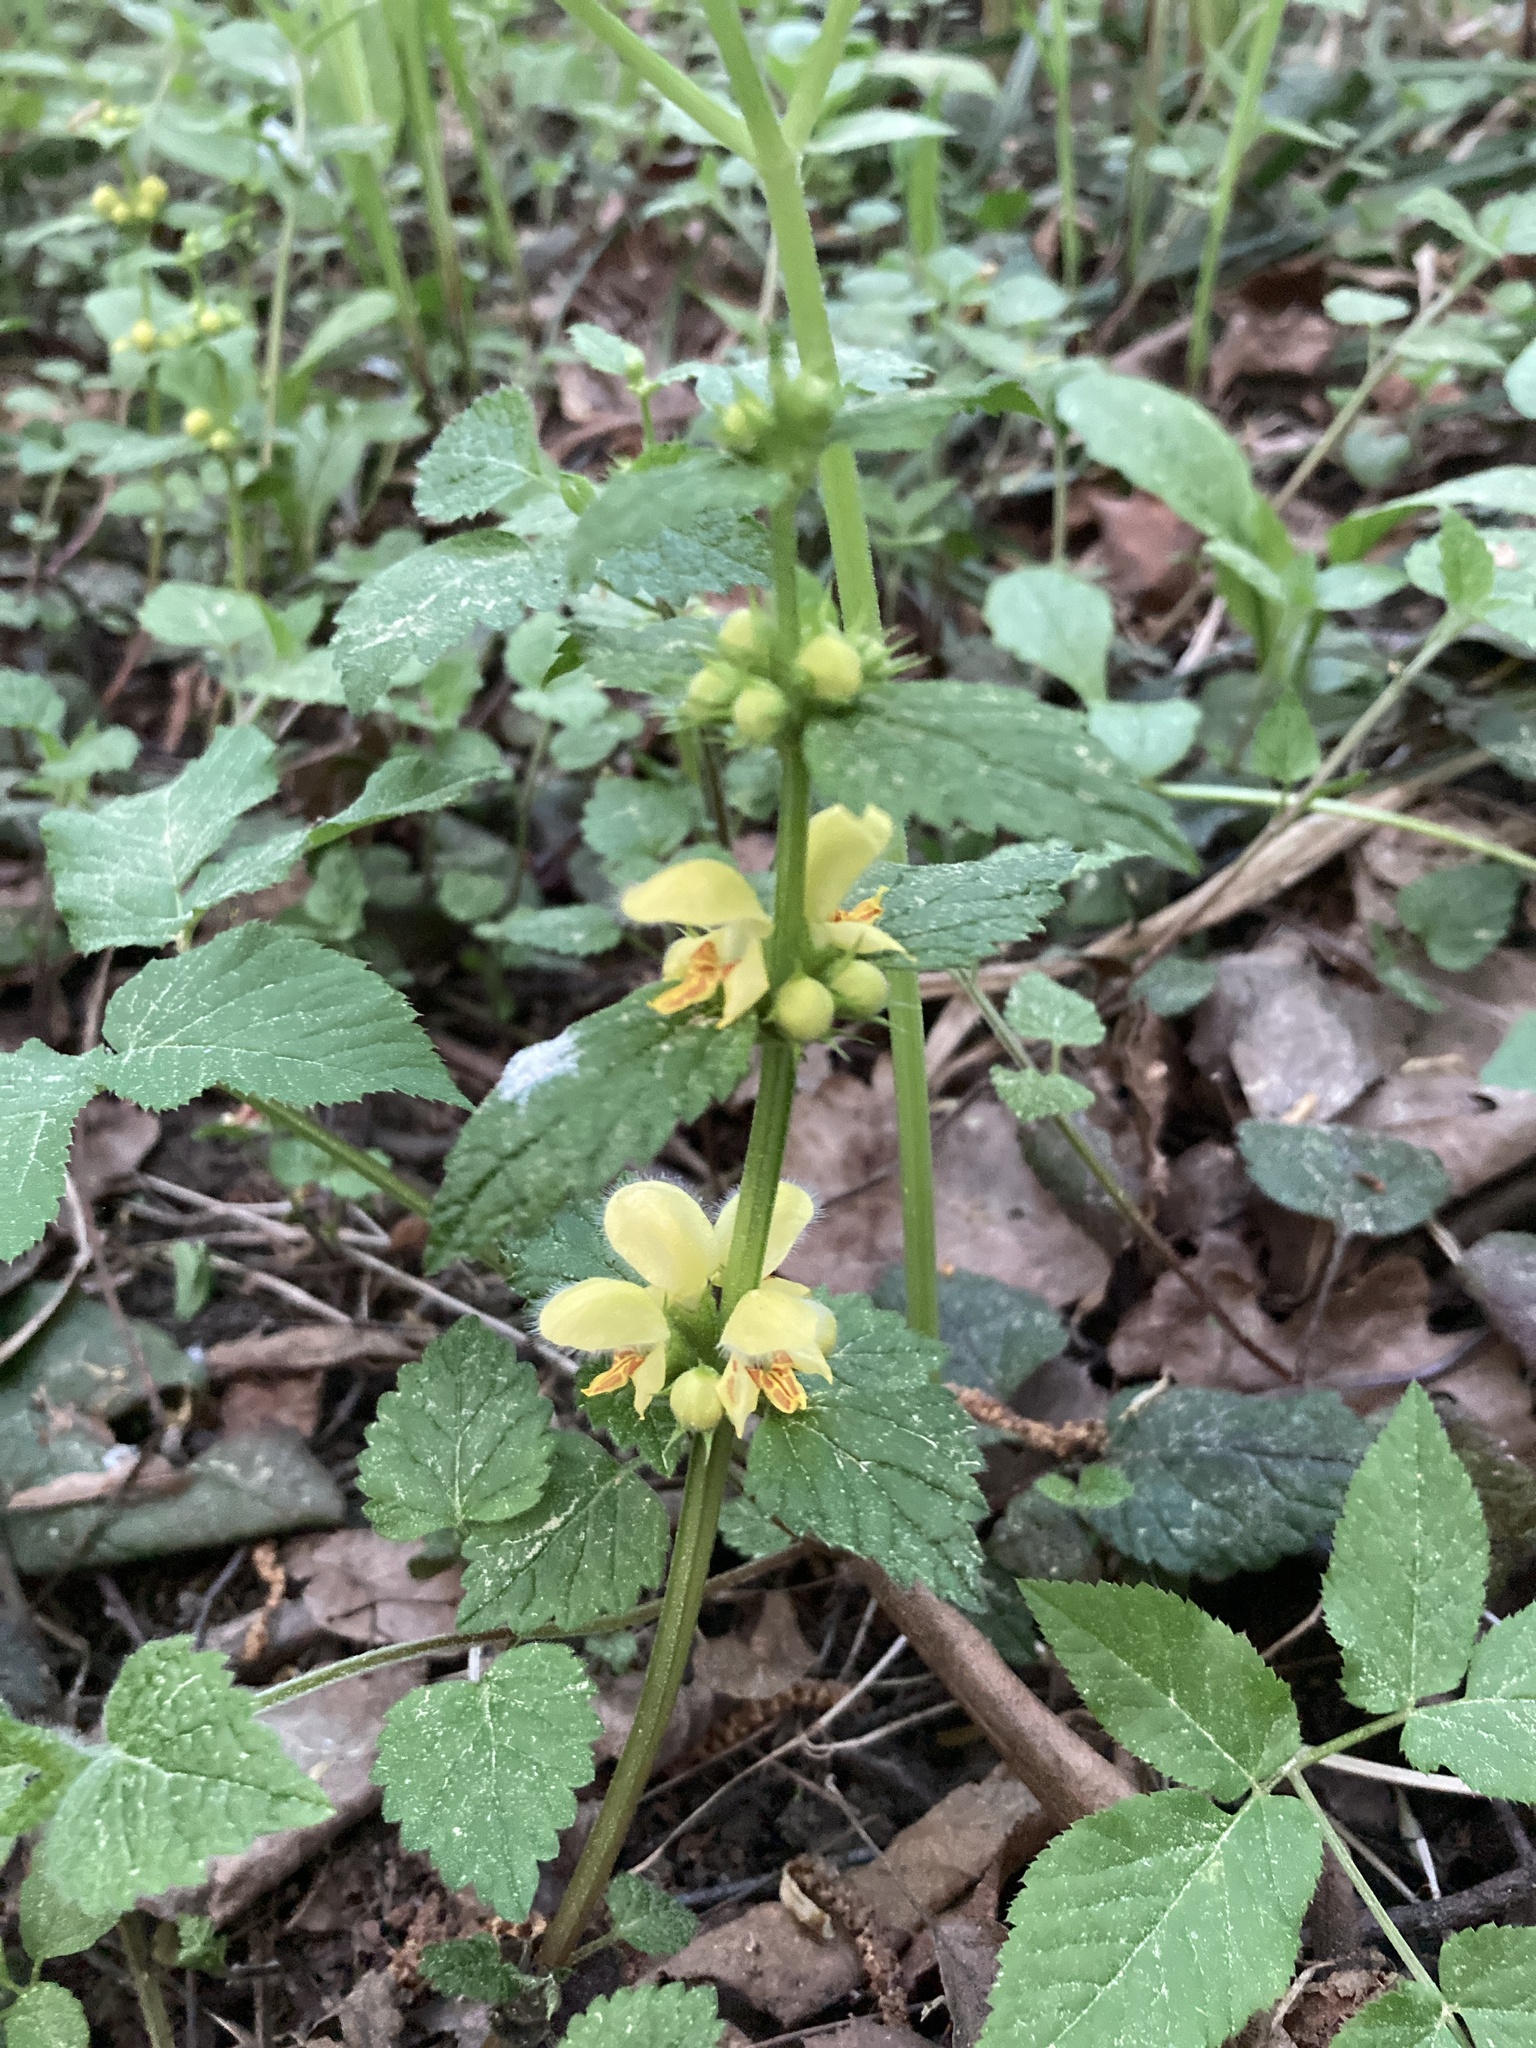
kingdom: Plantae
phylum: Tracheophyta
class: Magnoliopsida
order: Lamiales
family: Lamiaceae
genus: Lamium
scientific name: Lamium galeobdolon
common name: Yellow archangel
